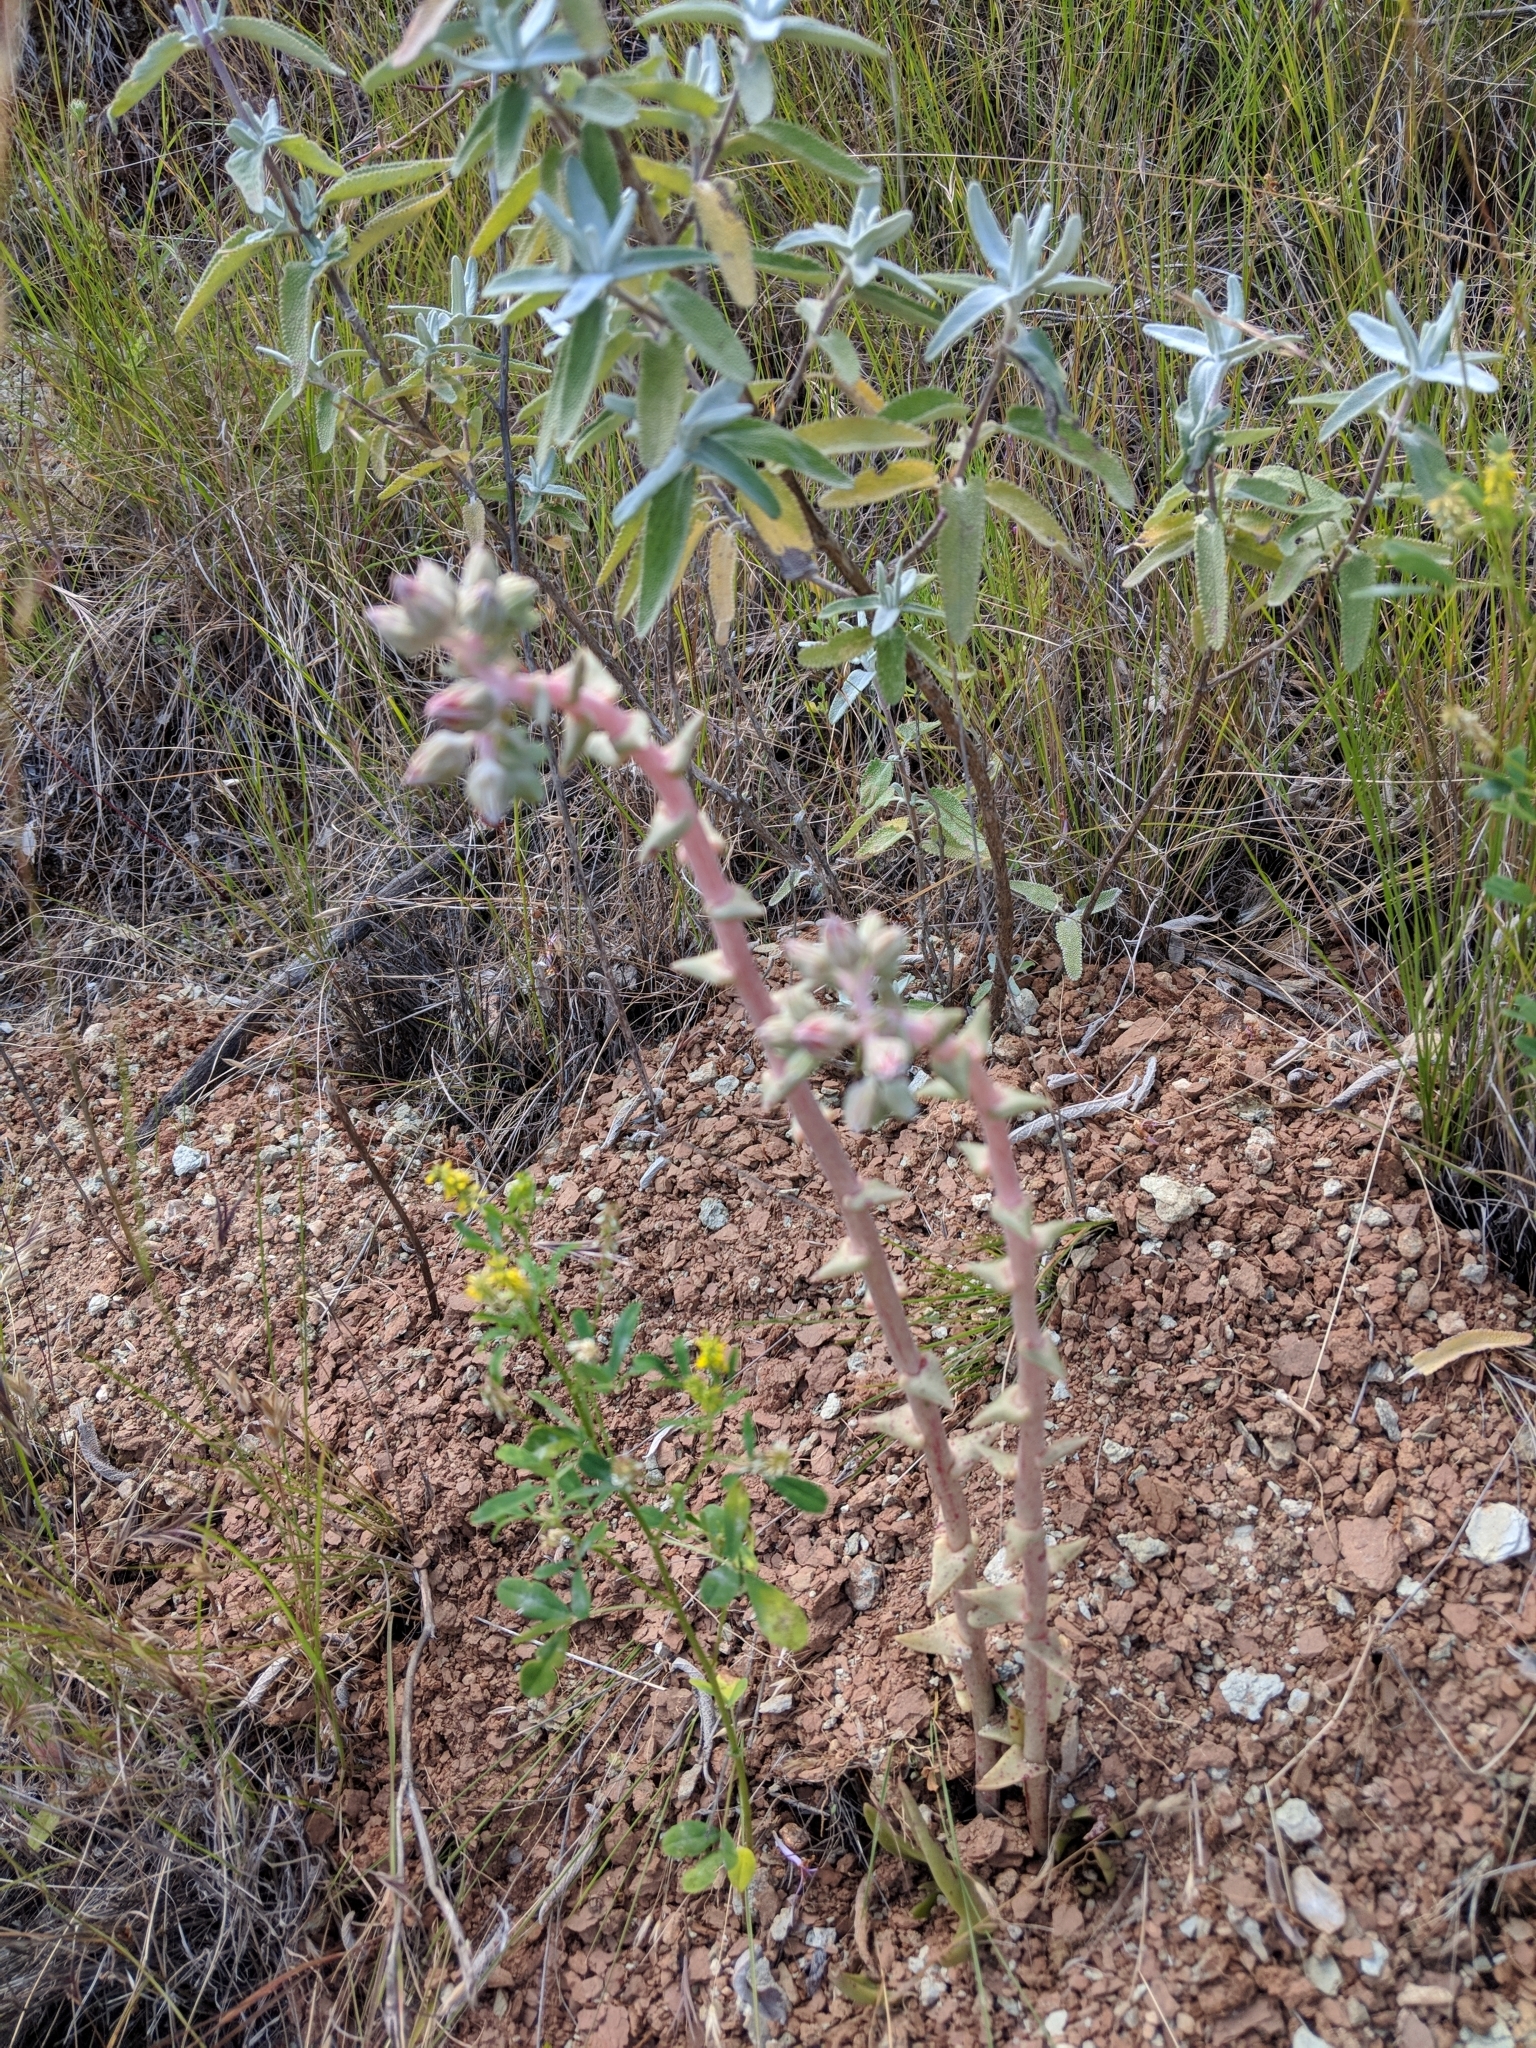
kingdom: Plantae
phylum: Tracheophyta
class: Magnoliopsida
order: Saxifragales
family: Crassulaceae
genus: Dudleya
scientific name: Dudleya lanceolata
